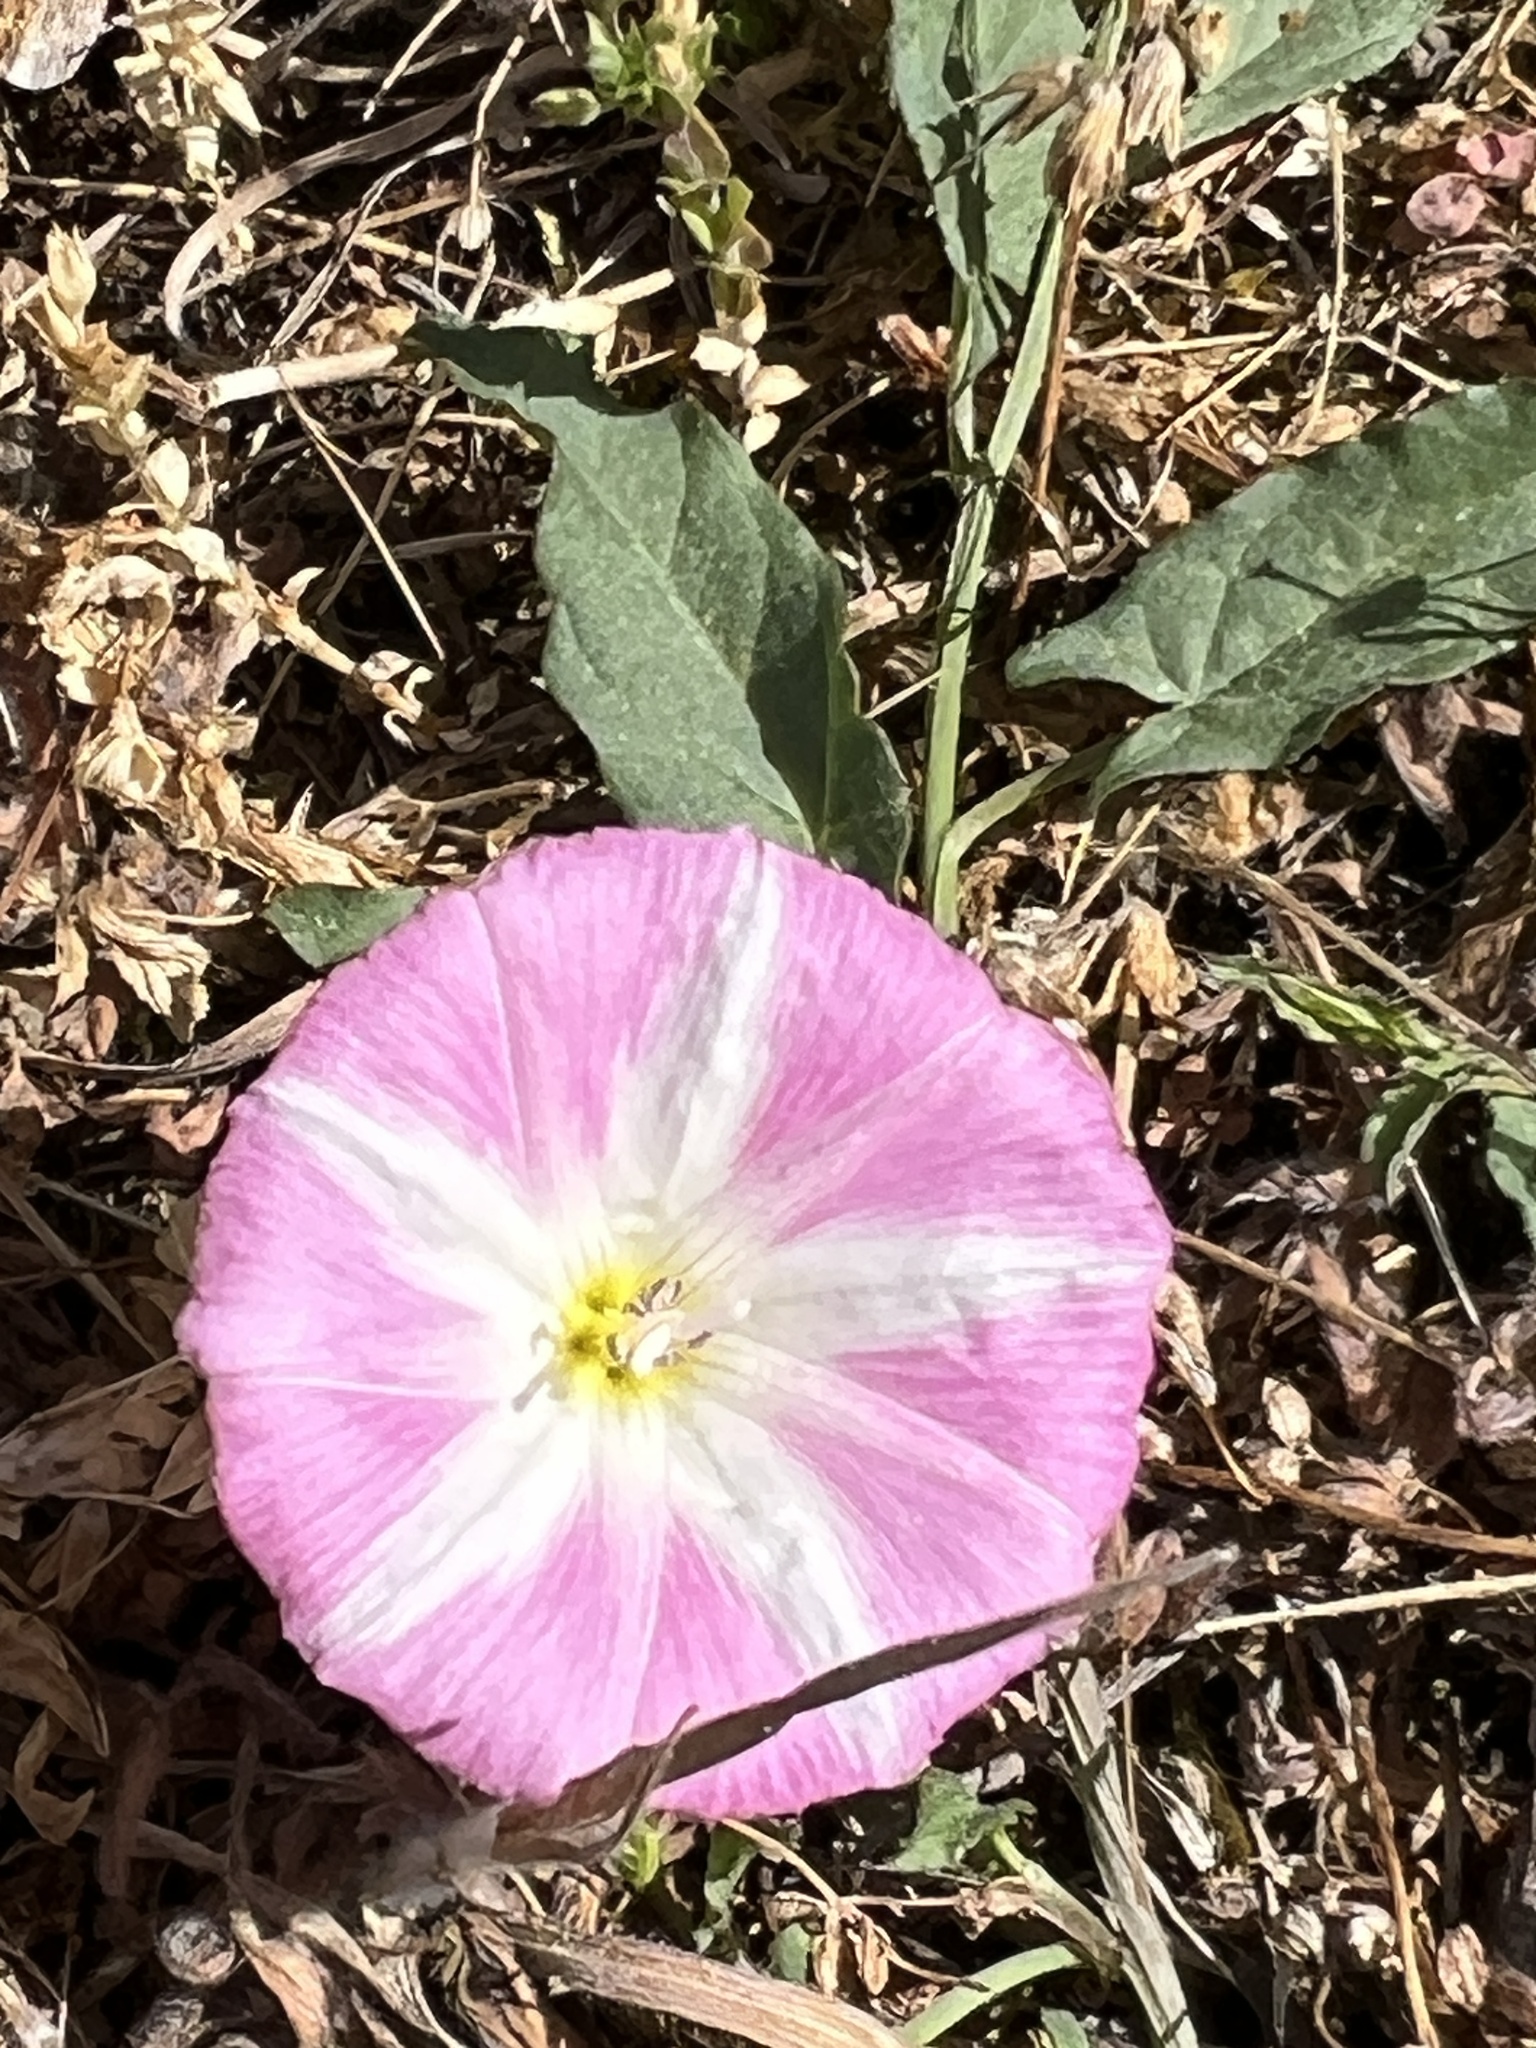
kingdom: Plantae
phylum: Tracheophyta
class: Magnoliopsida
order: Solanales
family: Convolvulaceae
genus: Convolvulus
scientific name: Convolvulus arvensis
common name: Field bindweed
